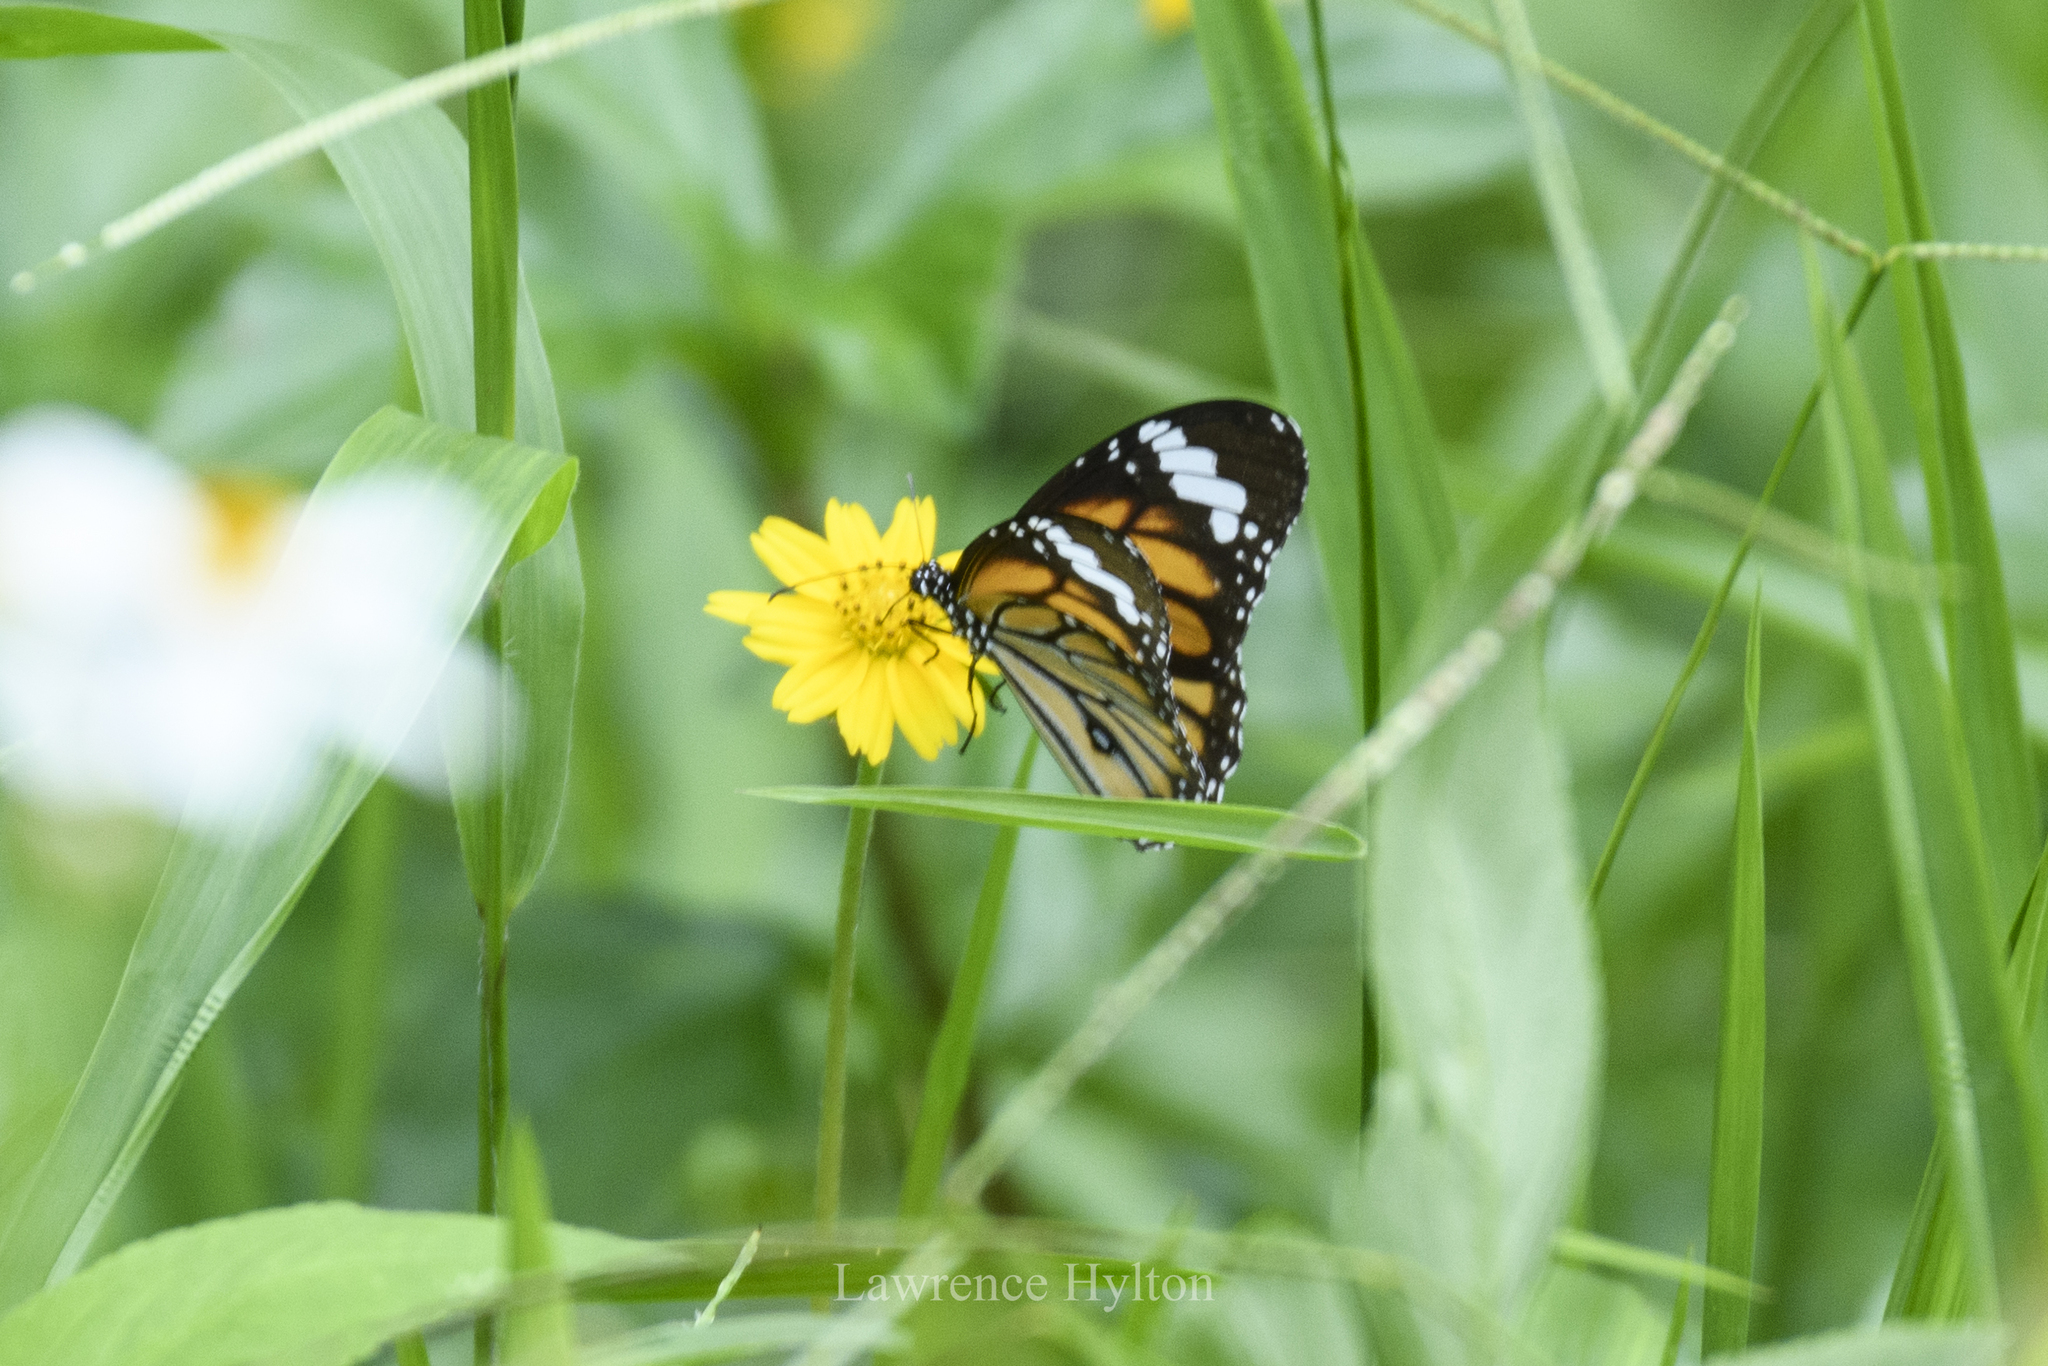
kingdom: Animalia
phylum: Arthropoda
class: Insecta
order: Lepidoptera
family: Nymphalidae
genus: Danaus
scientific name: Danaus genutia
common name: Common tiger butterfly
